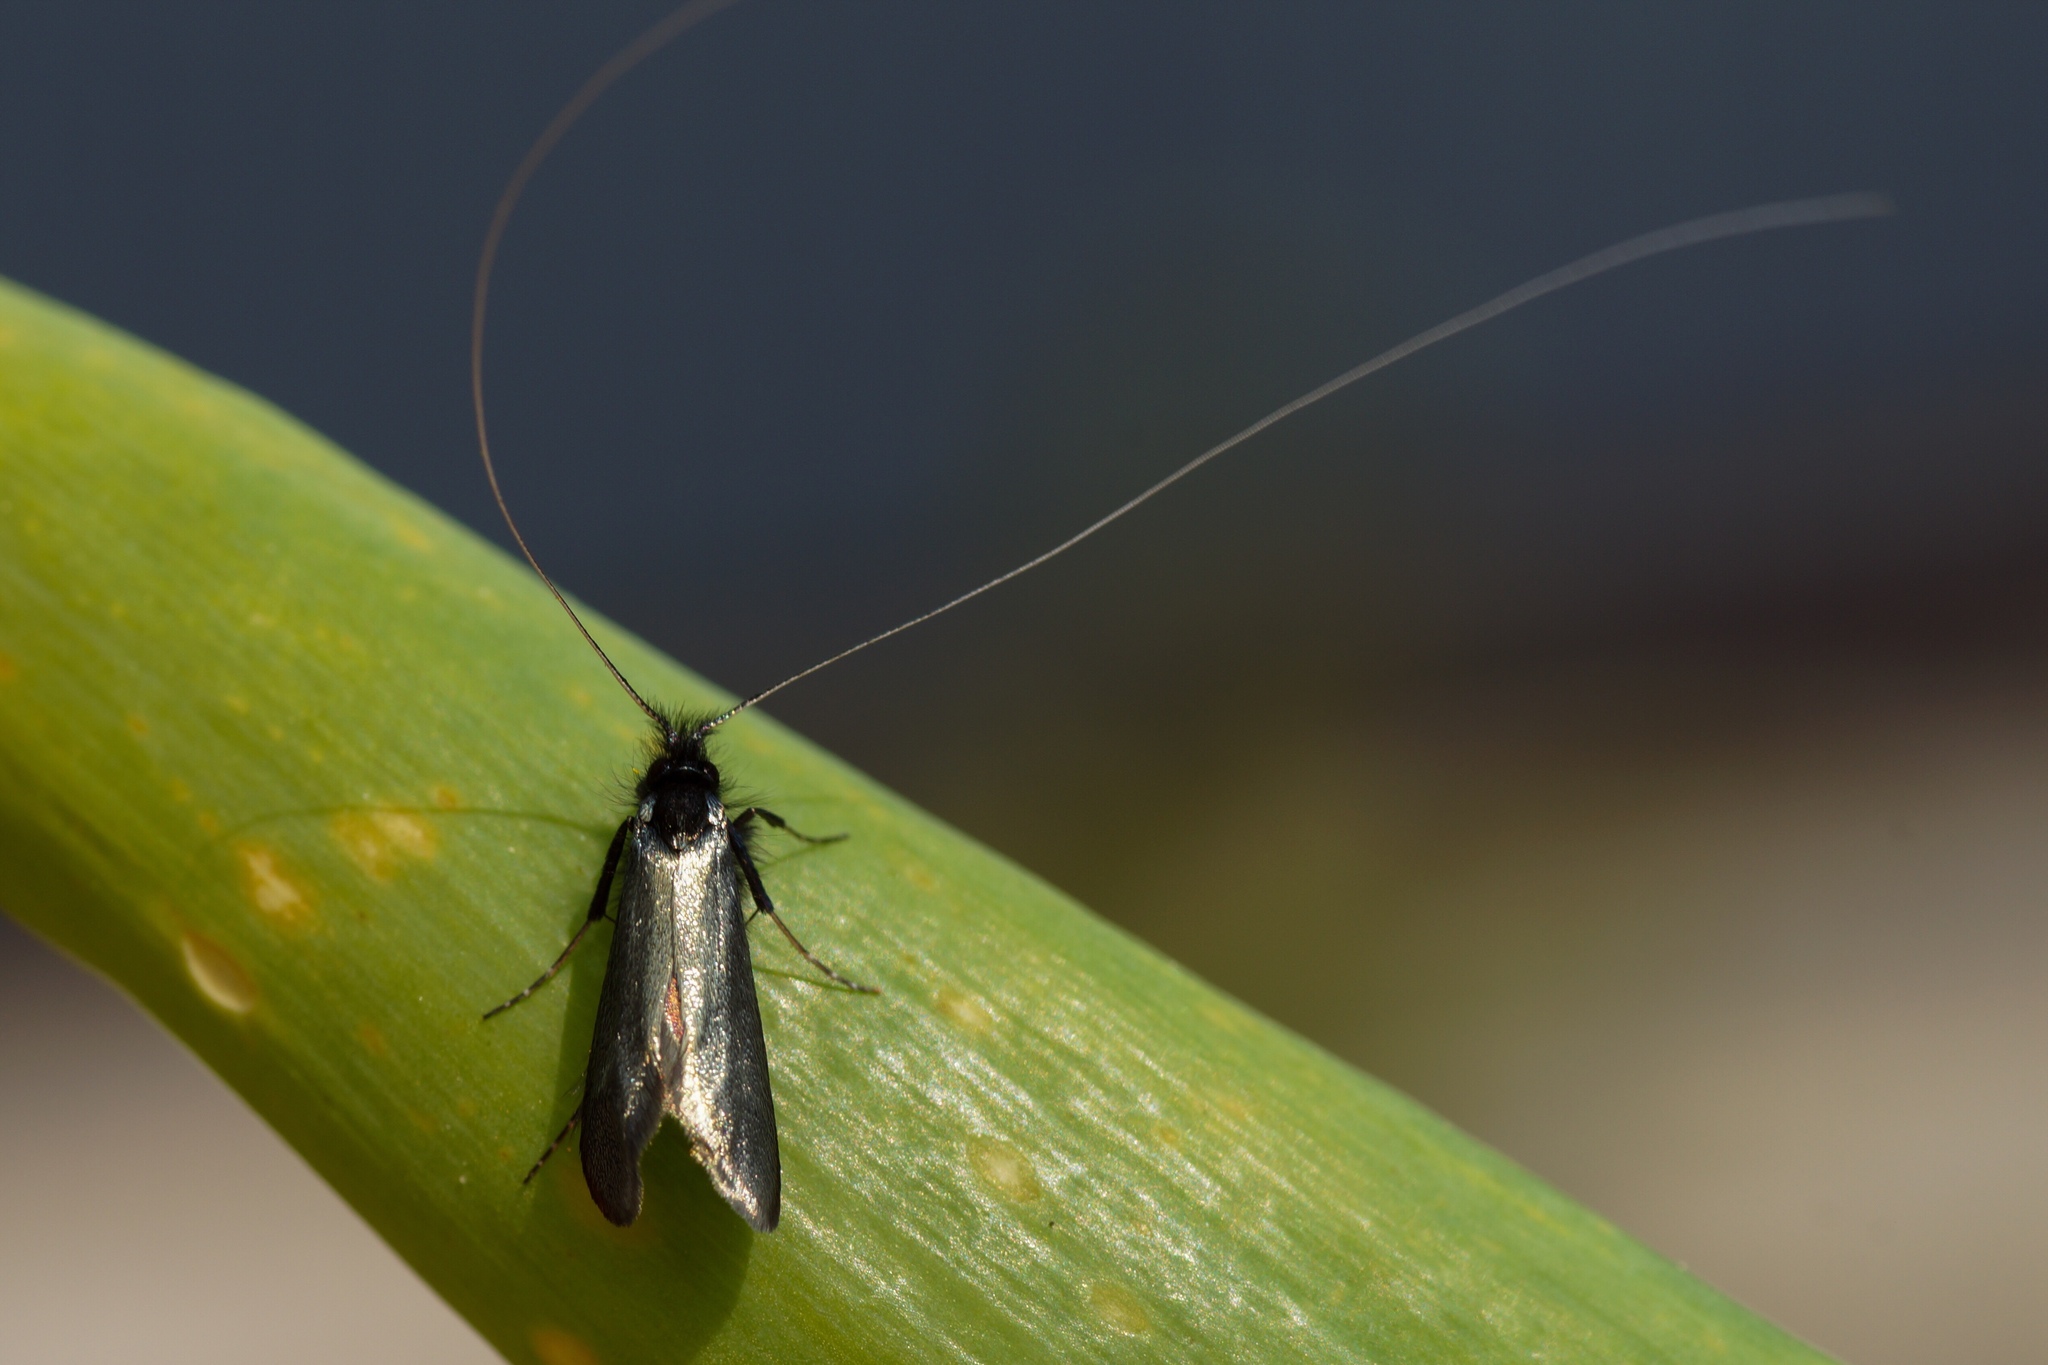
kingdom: Animalia
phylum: Arthropoda
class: Insecta
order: Lepidoptera
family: Adelidae
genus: Adela
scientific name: Adela viridella
